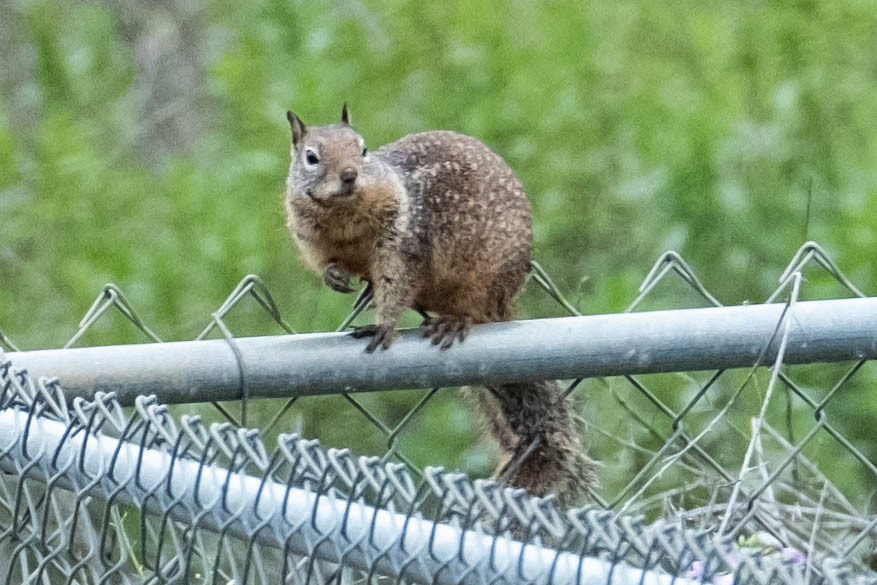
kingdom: Animalia
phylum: Chordata
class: Mammalia
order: Rodentia
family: Sciuridae
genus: Otospermophilus
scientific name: Otospermophilus beecheyi
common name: California ground squirrel
